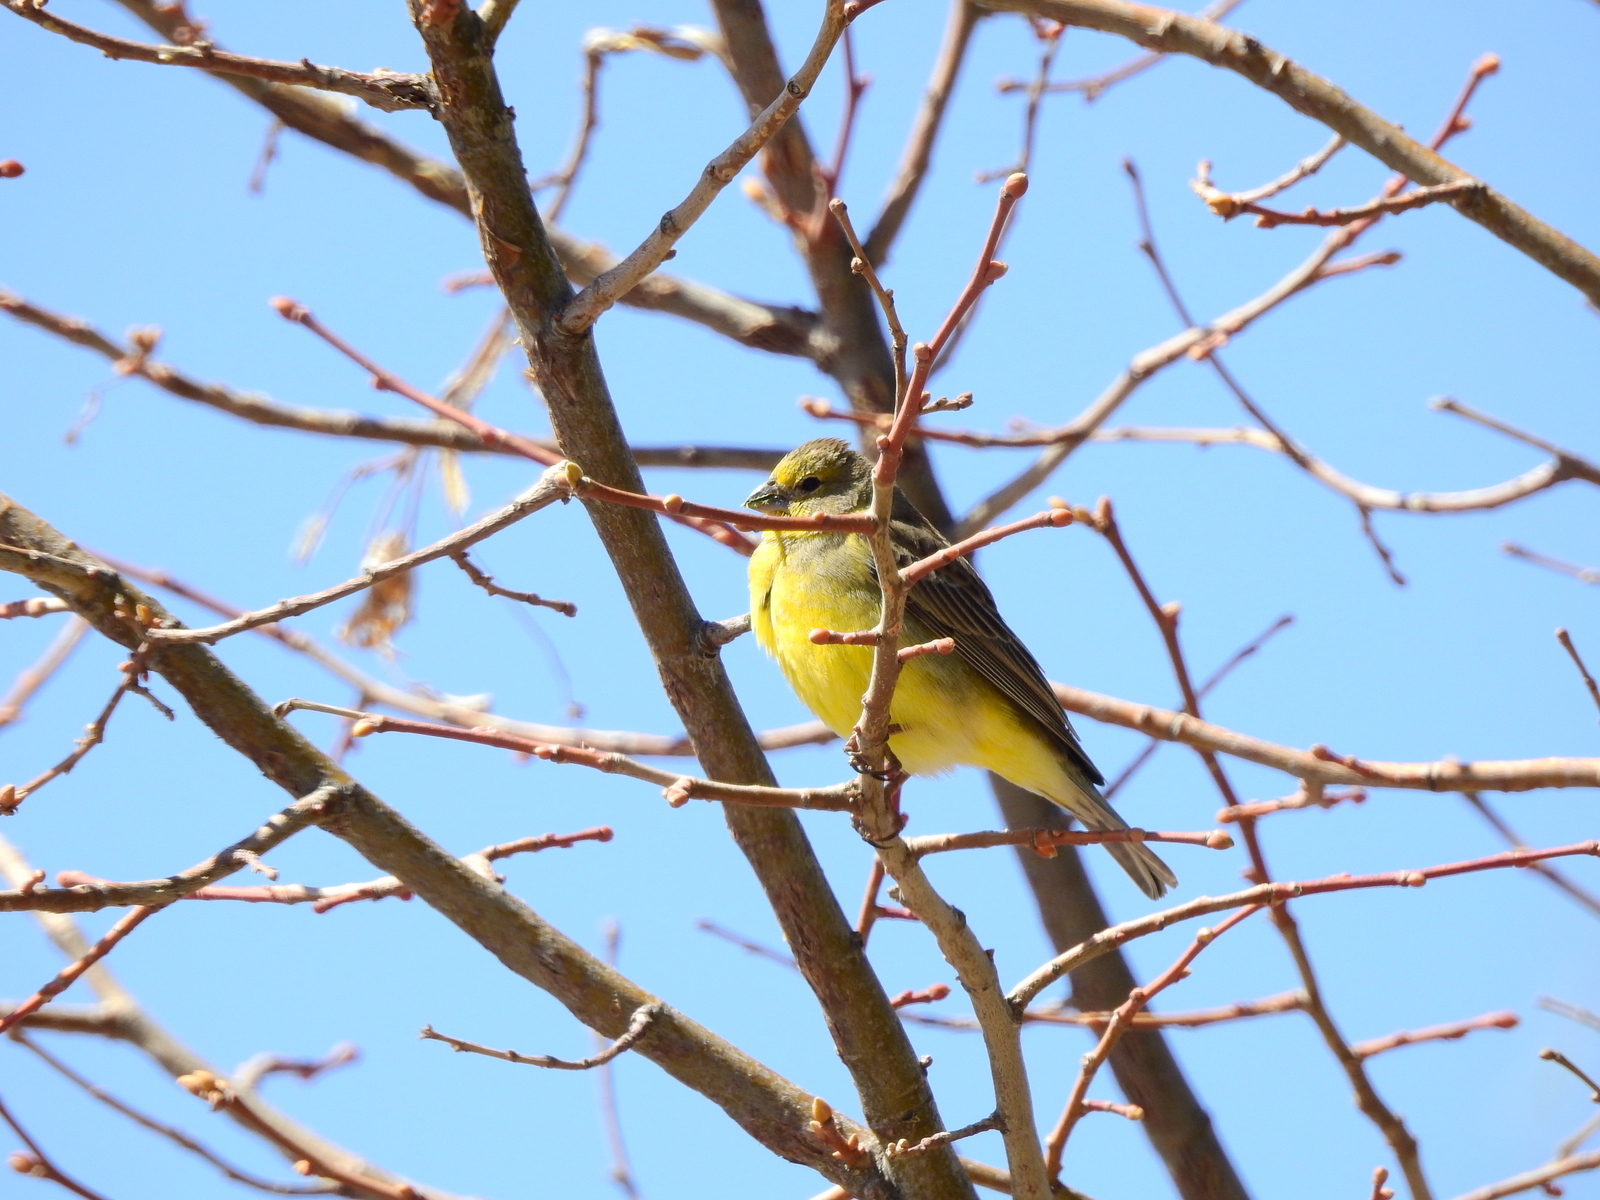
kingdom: Animalia
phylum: Chordata
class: Aves
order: Passeriformes
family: Thraupidae
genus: Sicalis
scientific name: Sicalis luteola
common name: Grassland yellow-finch
